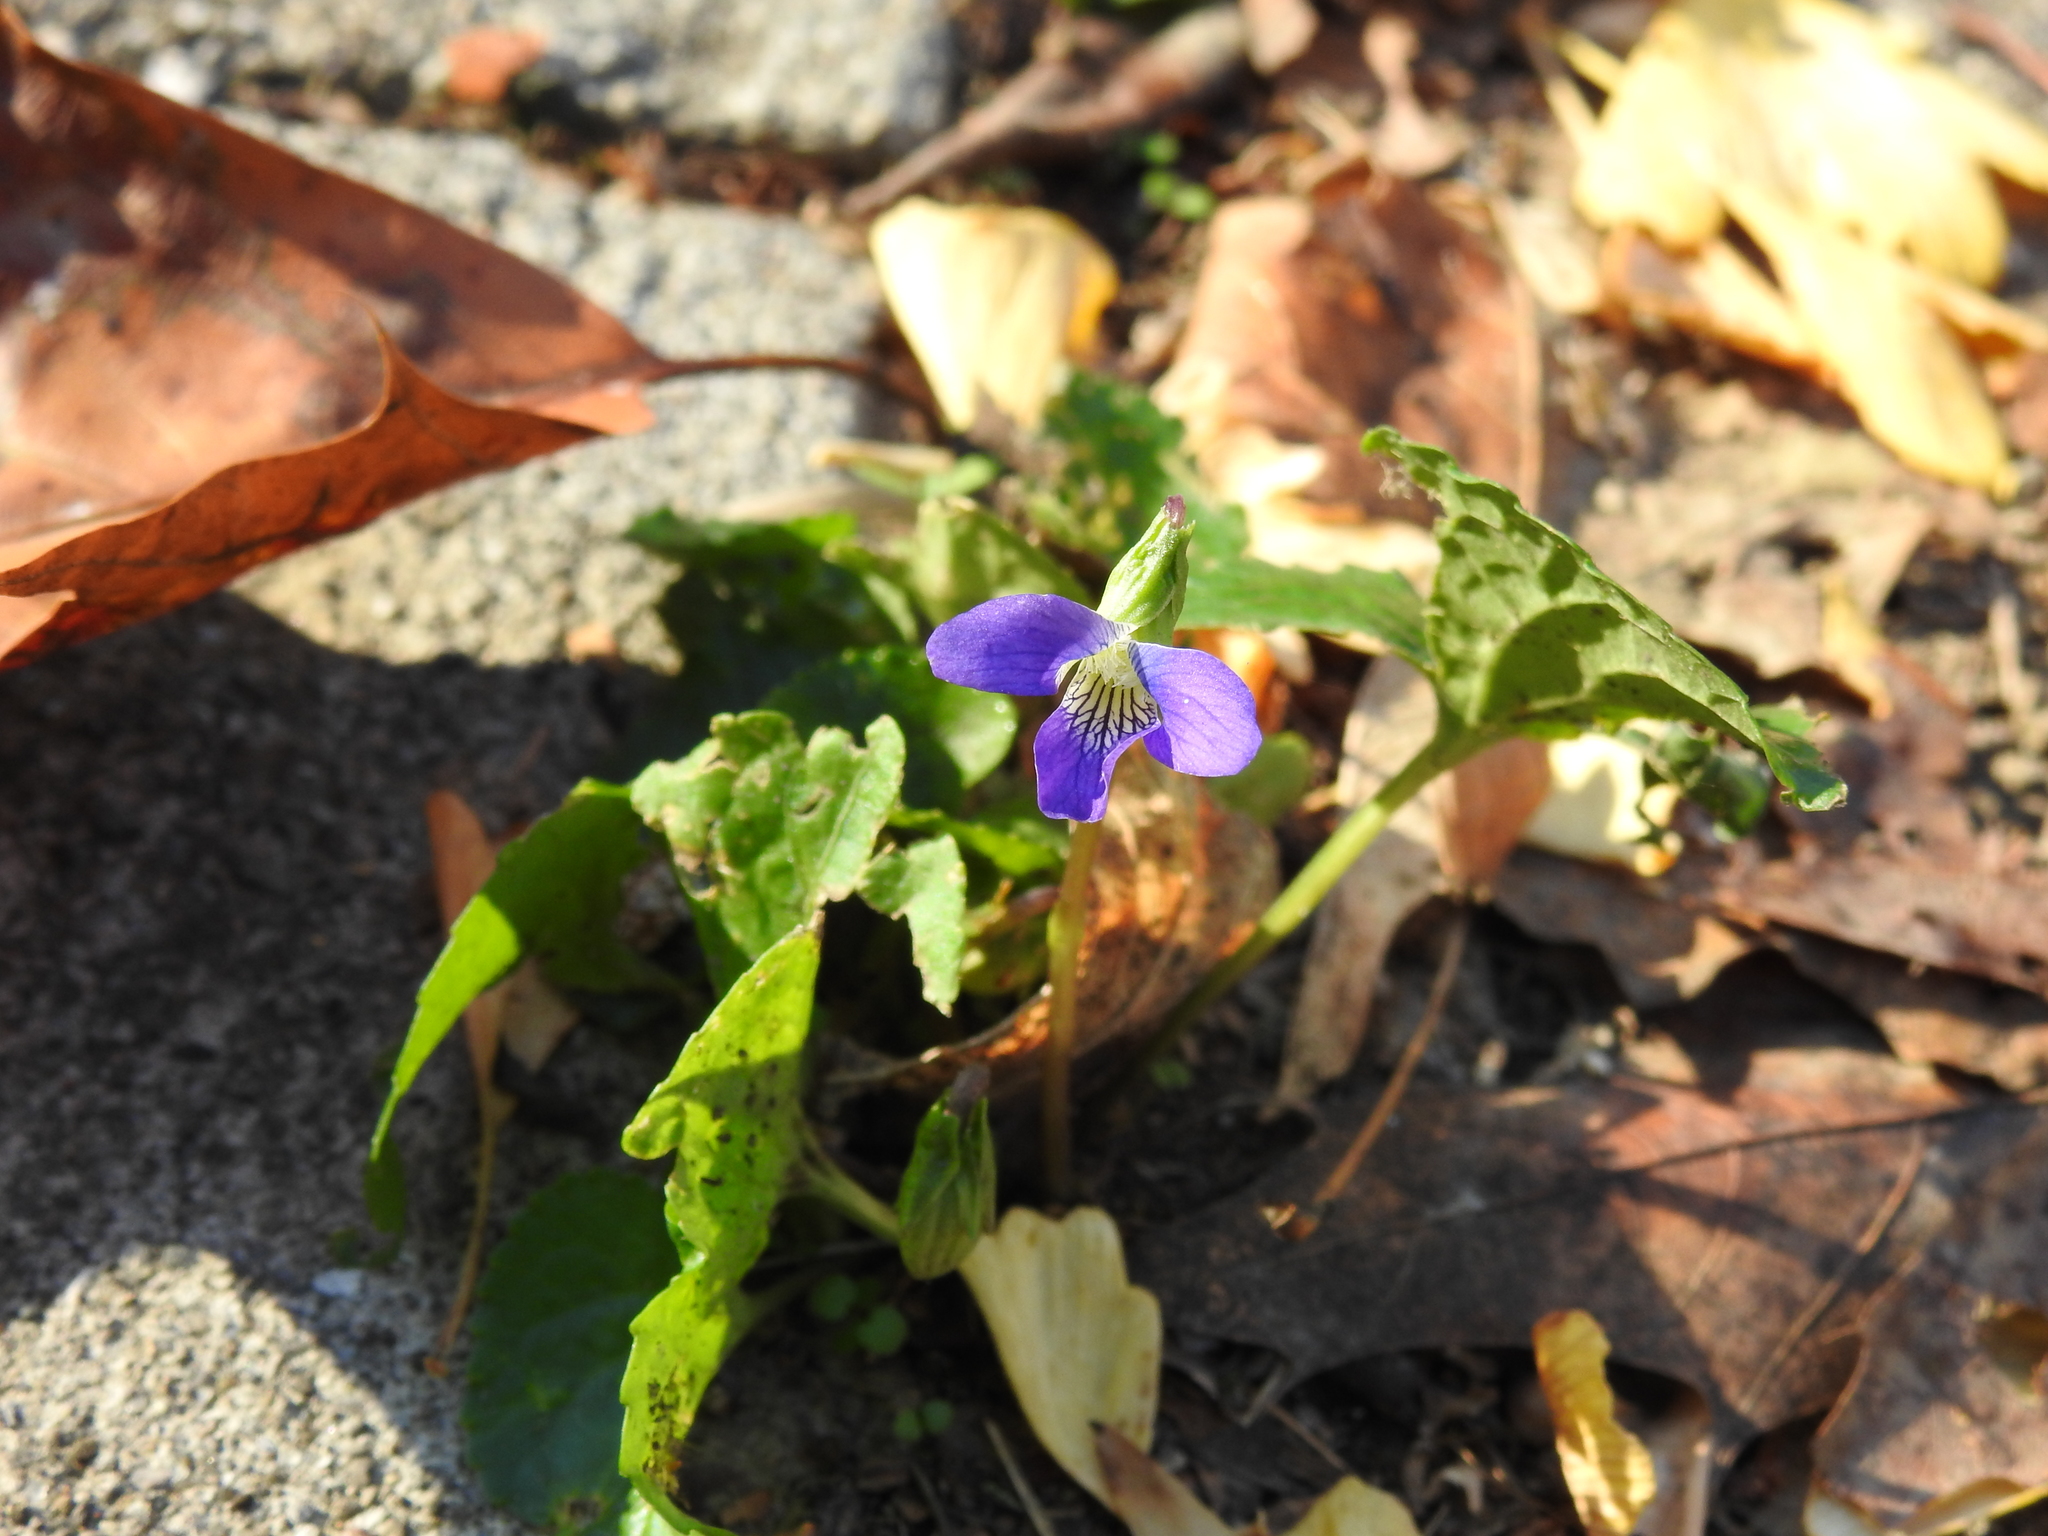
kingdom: Plantae
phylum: Tracheophyta
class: Magnoliopsida
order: Malpighiales
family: Violaceae
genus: Viola
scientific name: Viola sororia
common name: Dooryard violet
